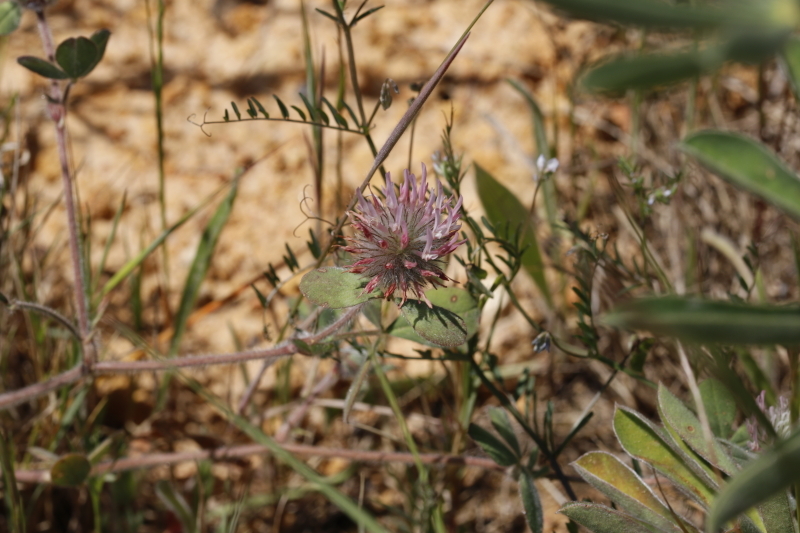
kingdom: Plantae
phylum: Tracheophyta
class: Magnoliopsida
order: Fabales
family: Fabaceae
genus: Trifolium
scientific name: Trifolium hirtum
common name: Rose clover
